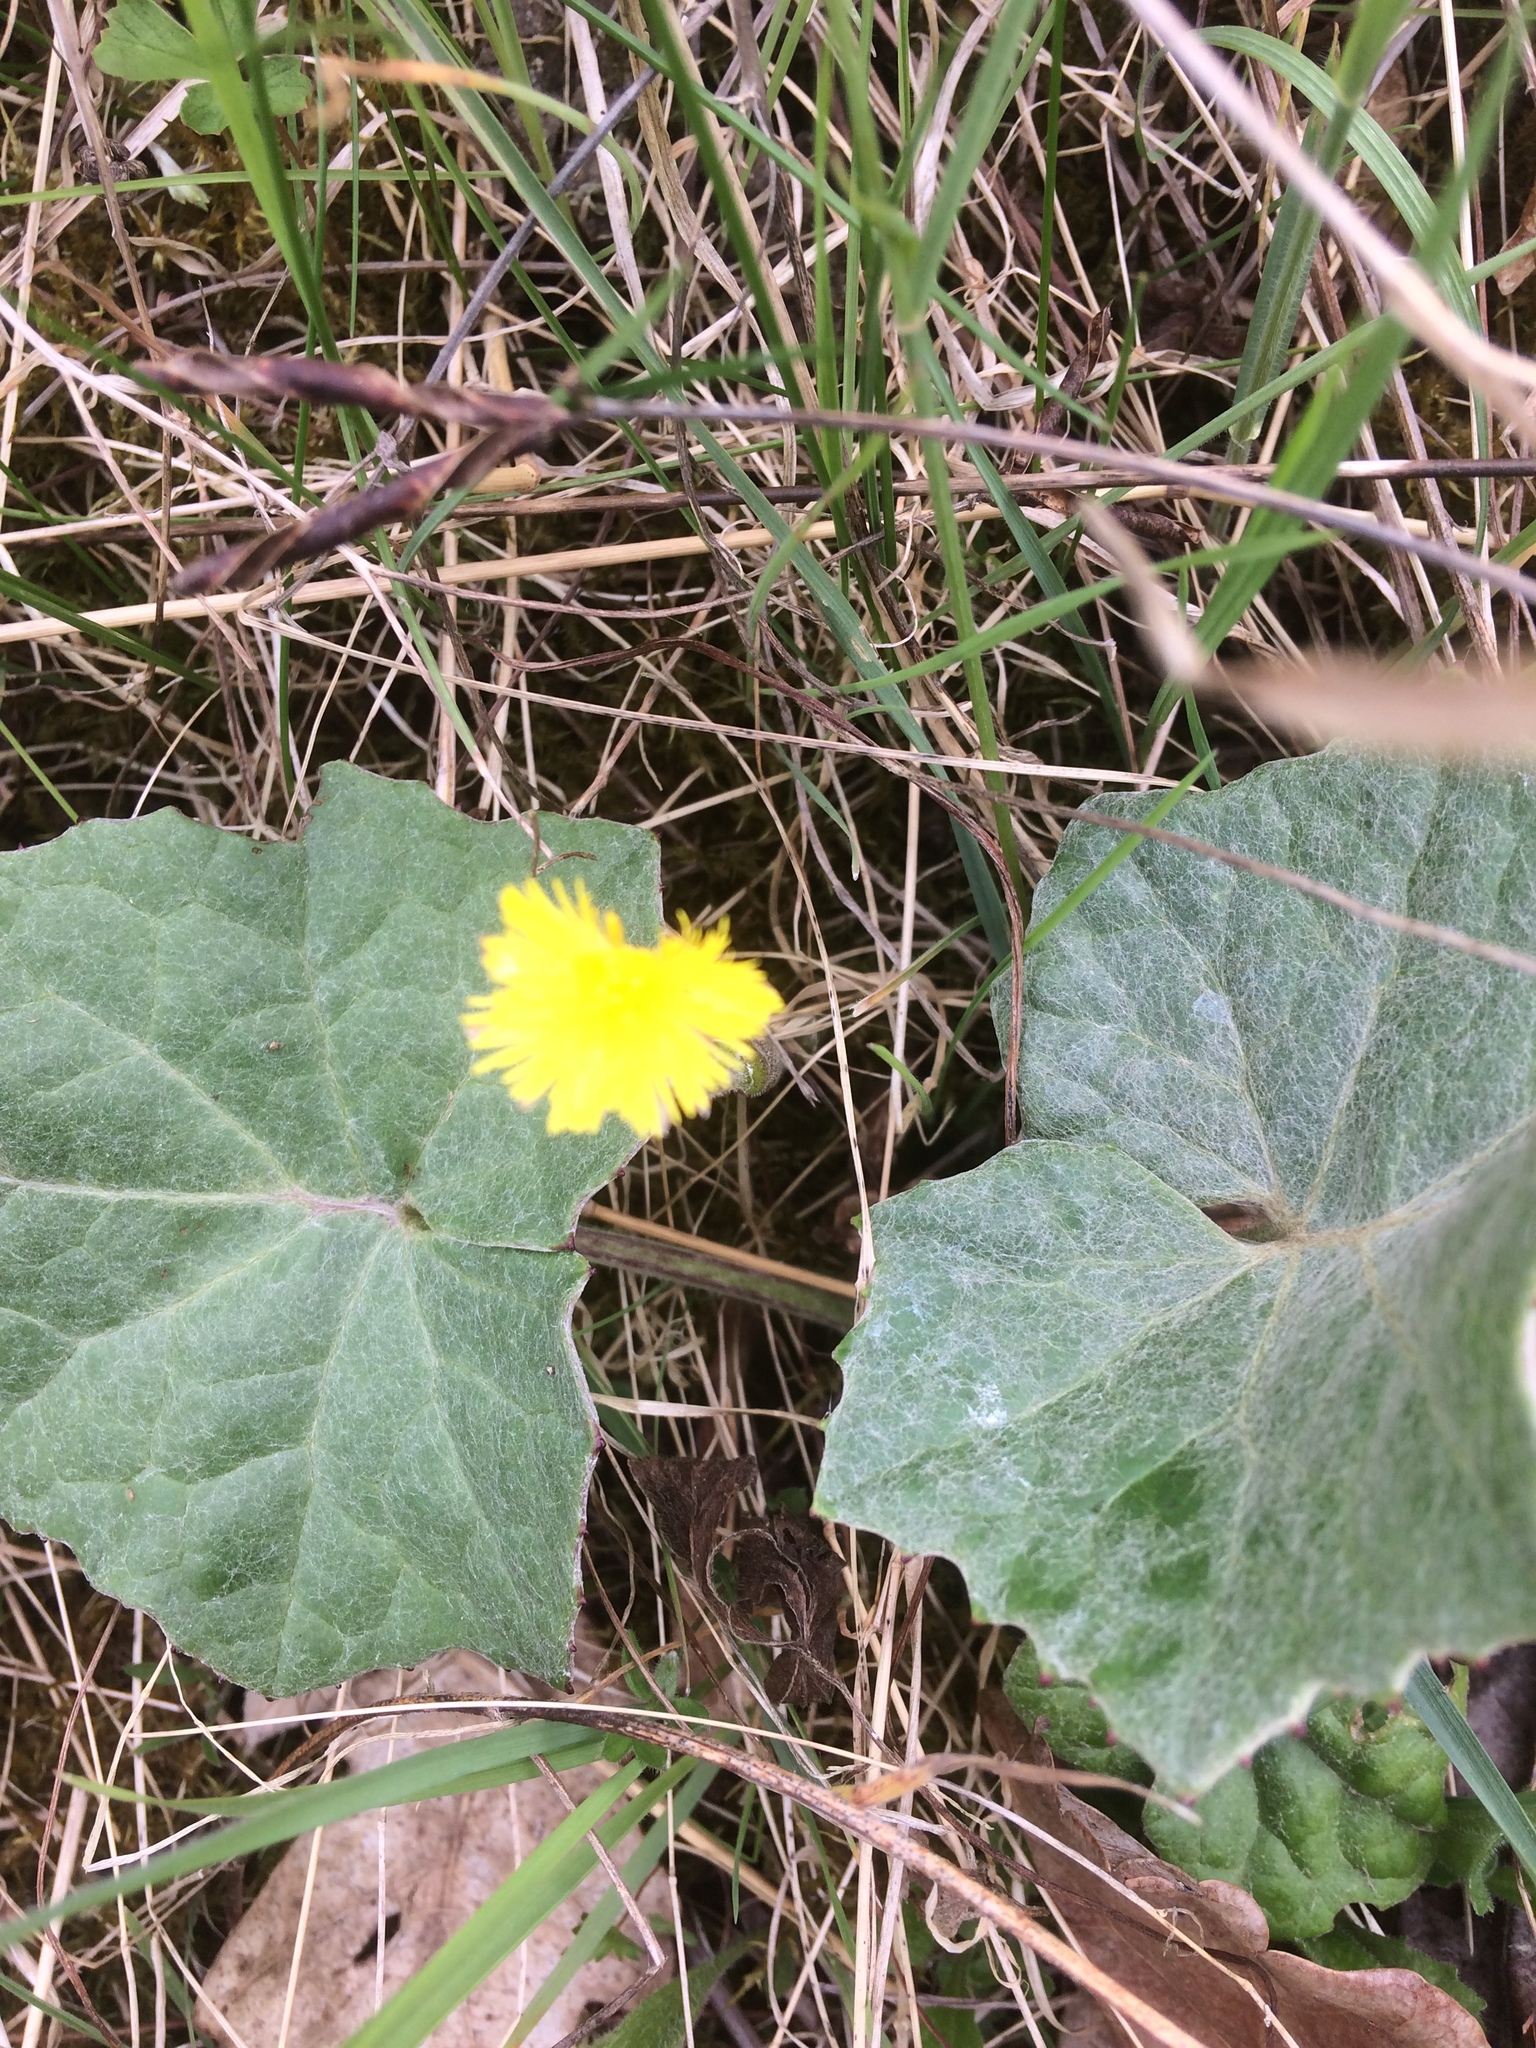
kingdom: Plantae
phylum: Tracheophyta
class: Magnoliopsida
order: Asterales
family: Asteraceae
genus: Tussilago
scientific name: Tussilago farfara
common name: Coltsfoot
